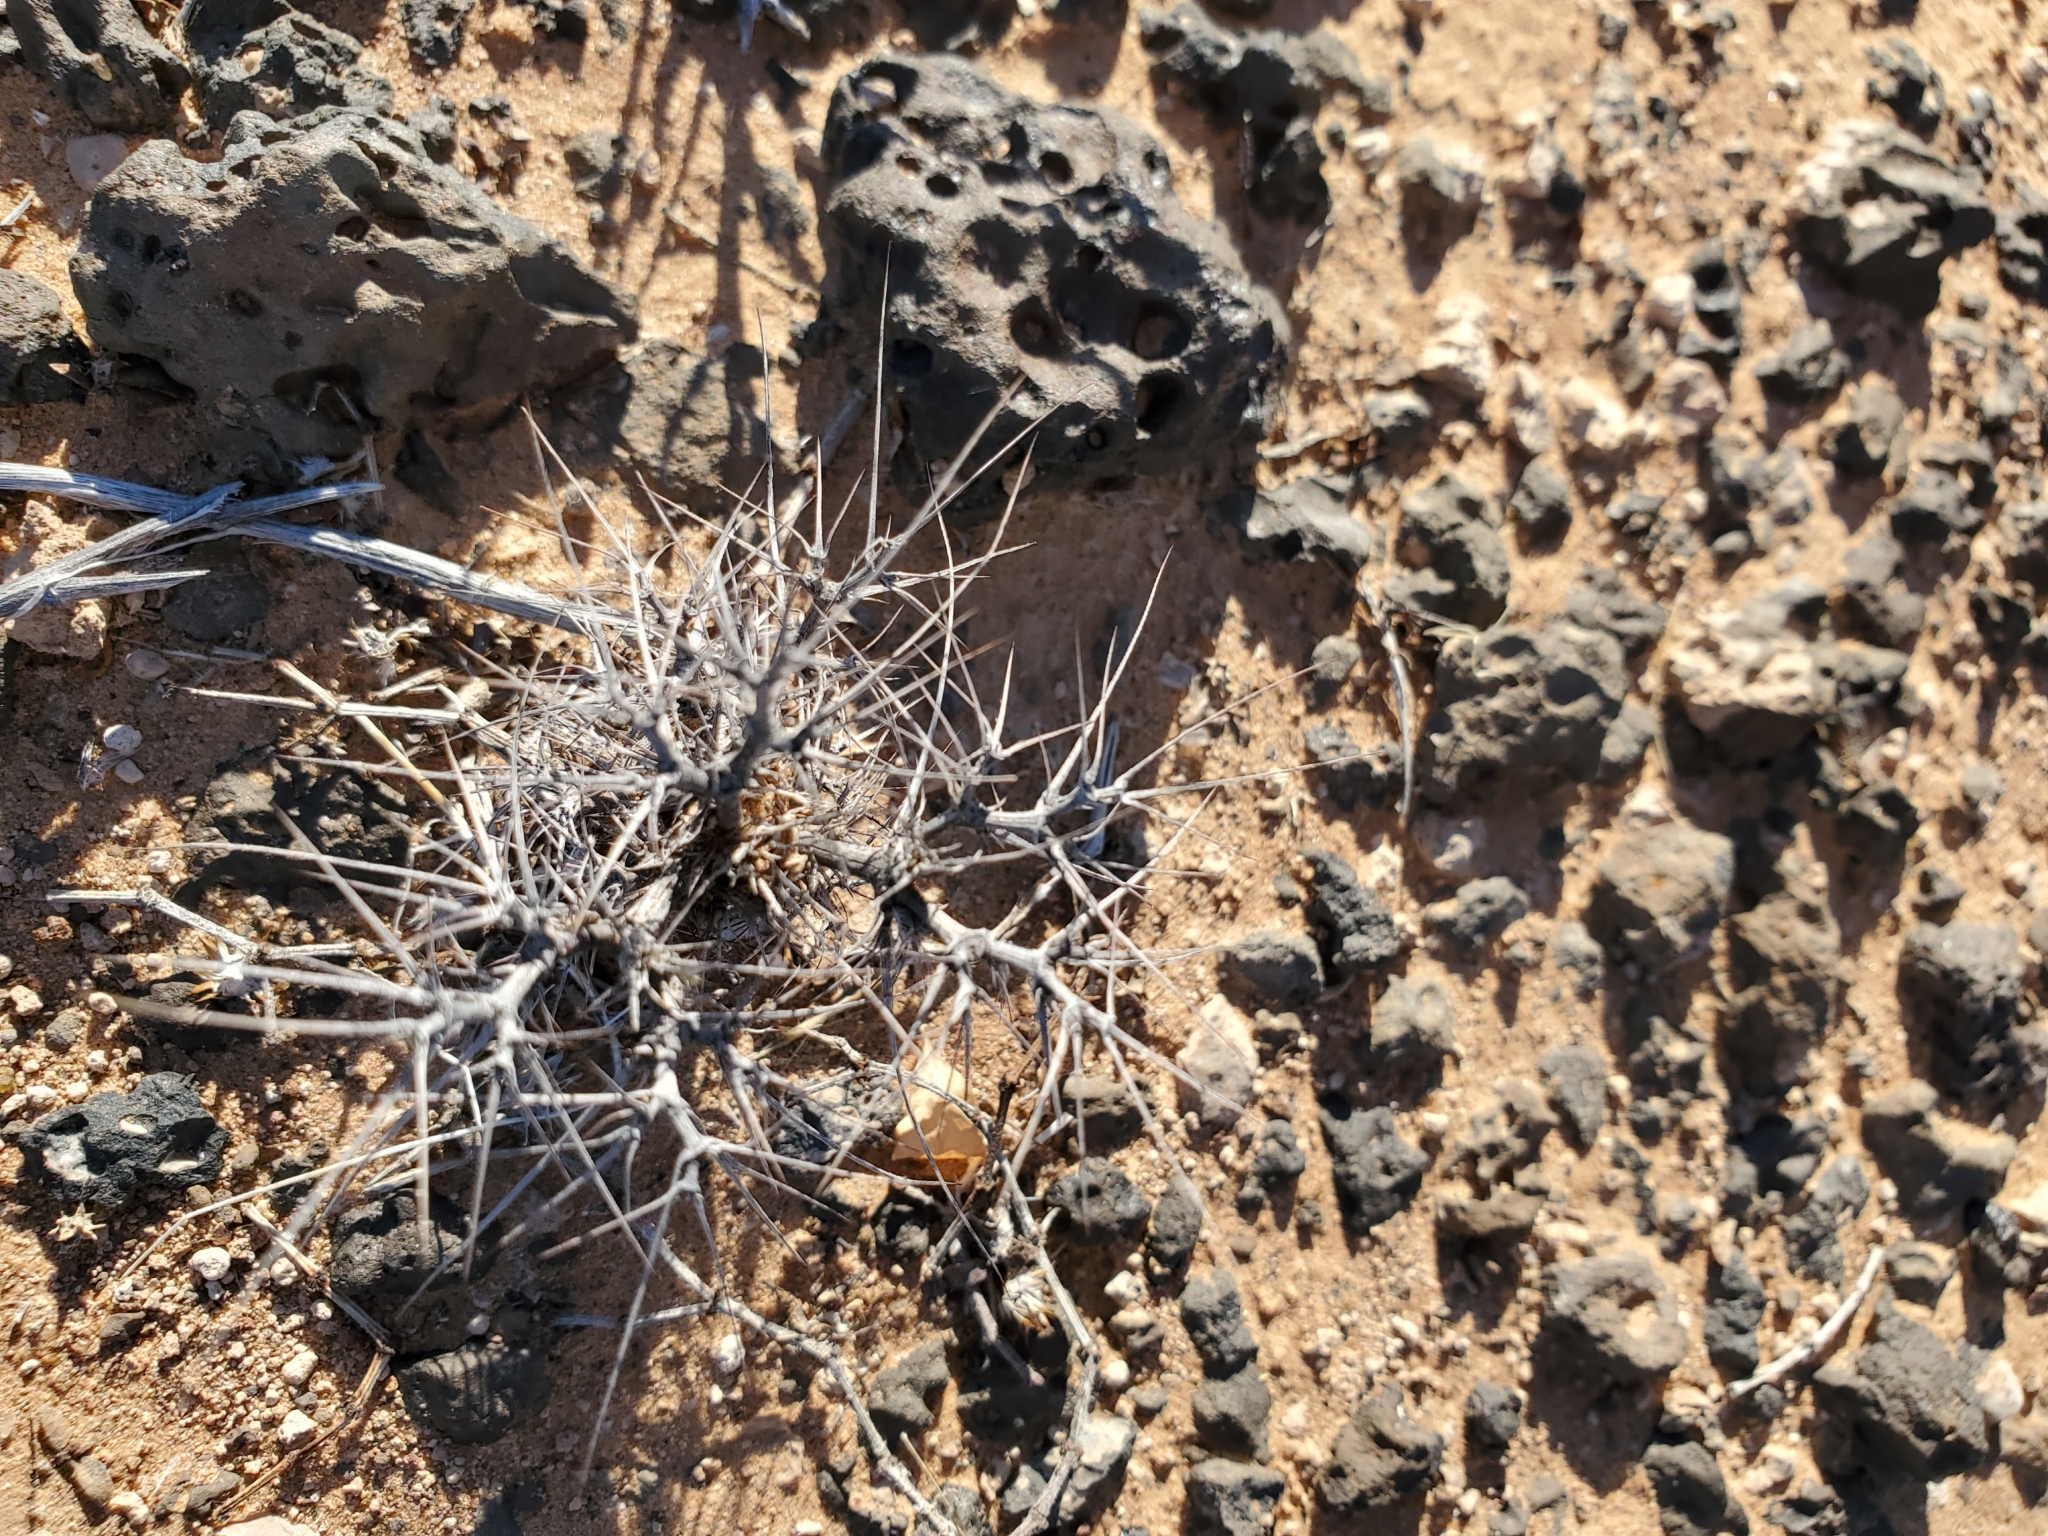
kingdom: Plantae
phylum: Tracheophyta
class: Magnoliopsida
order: Caryophyllales
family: Polygonaceae
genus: Chorizanthe
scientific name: Chorizanthe rigida
